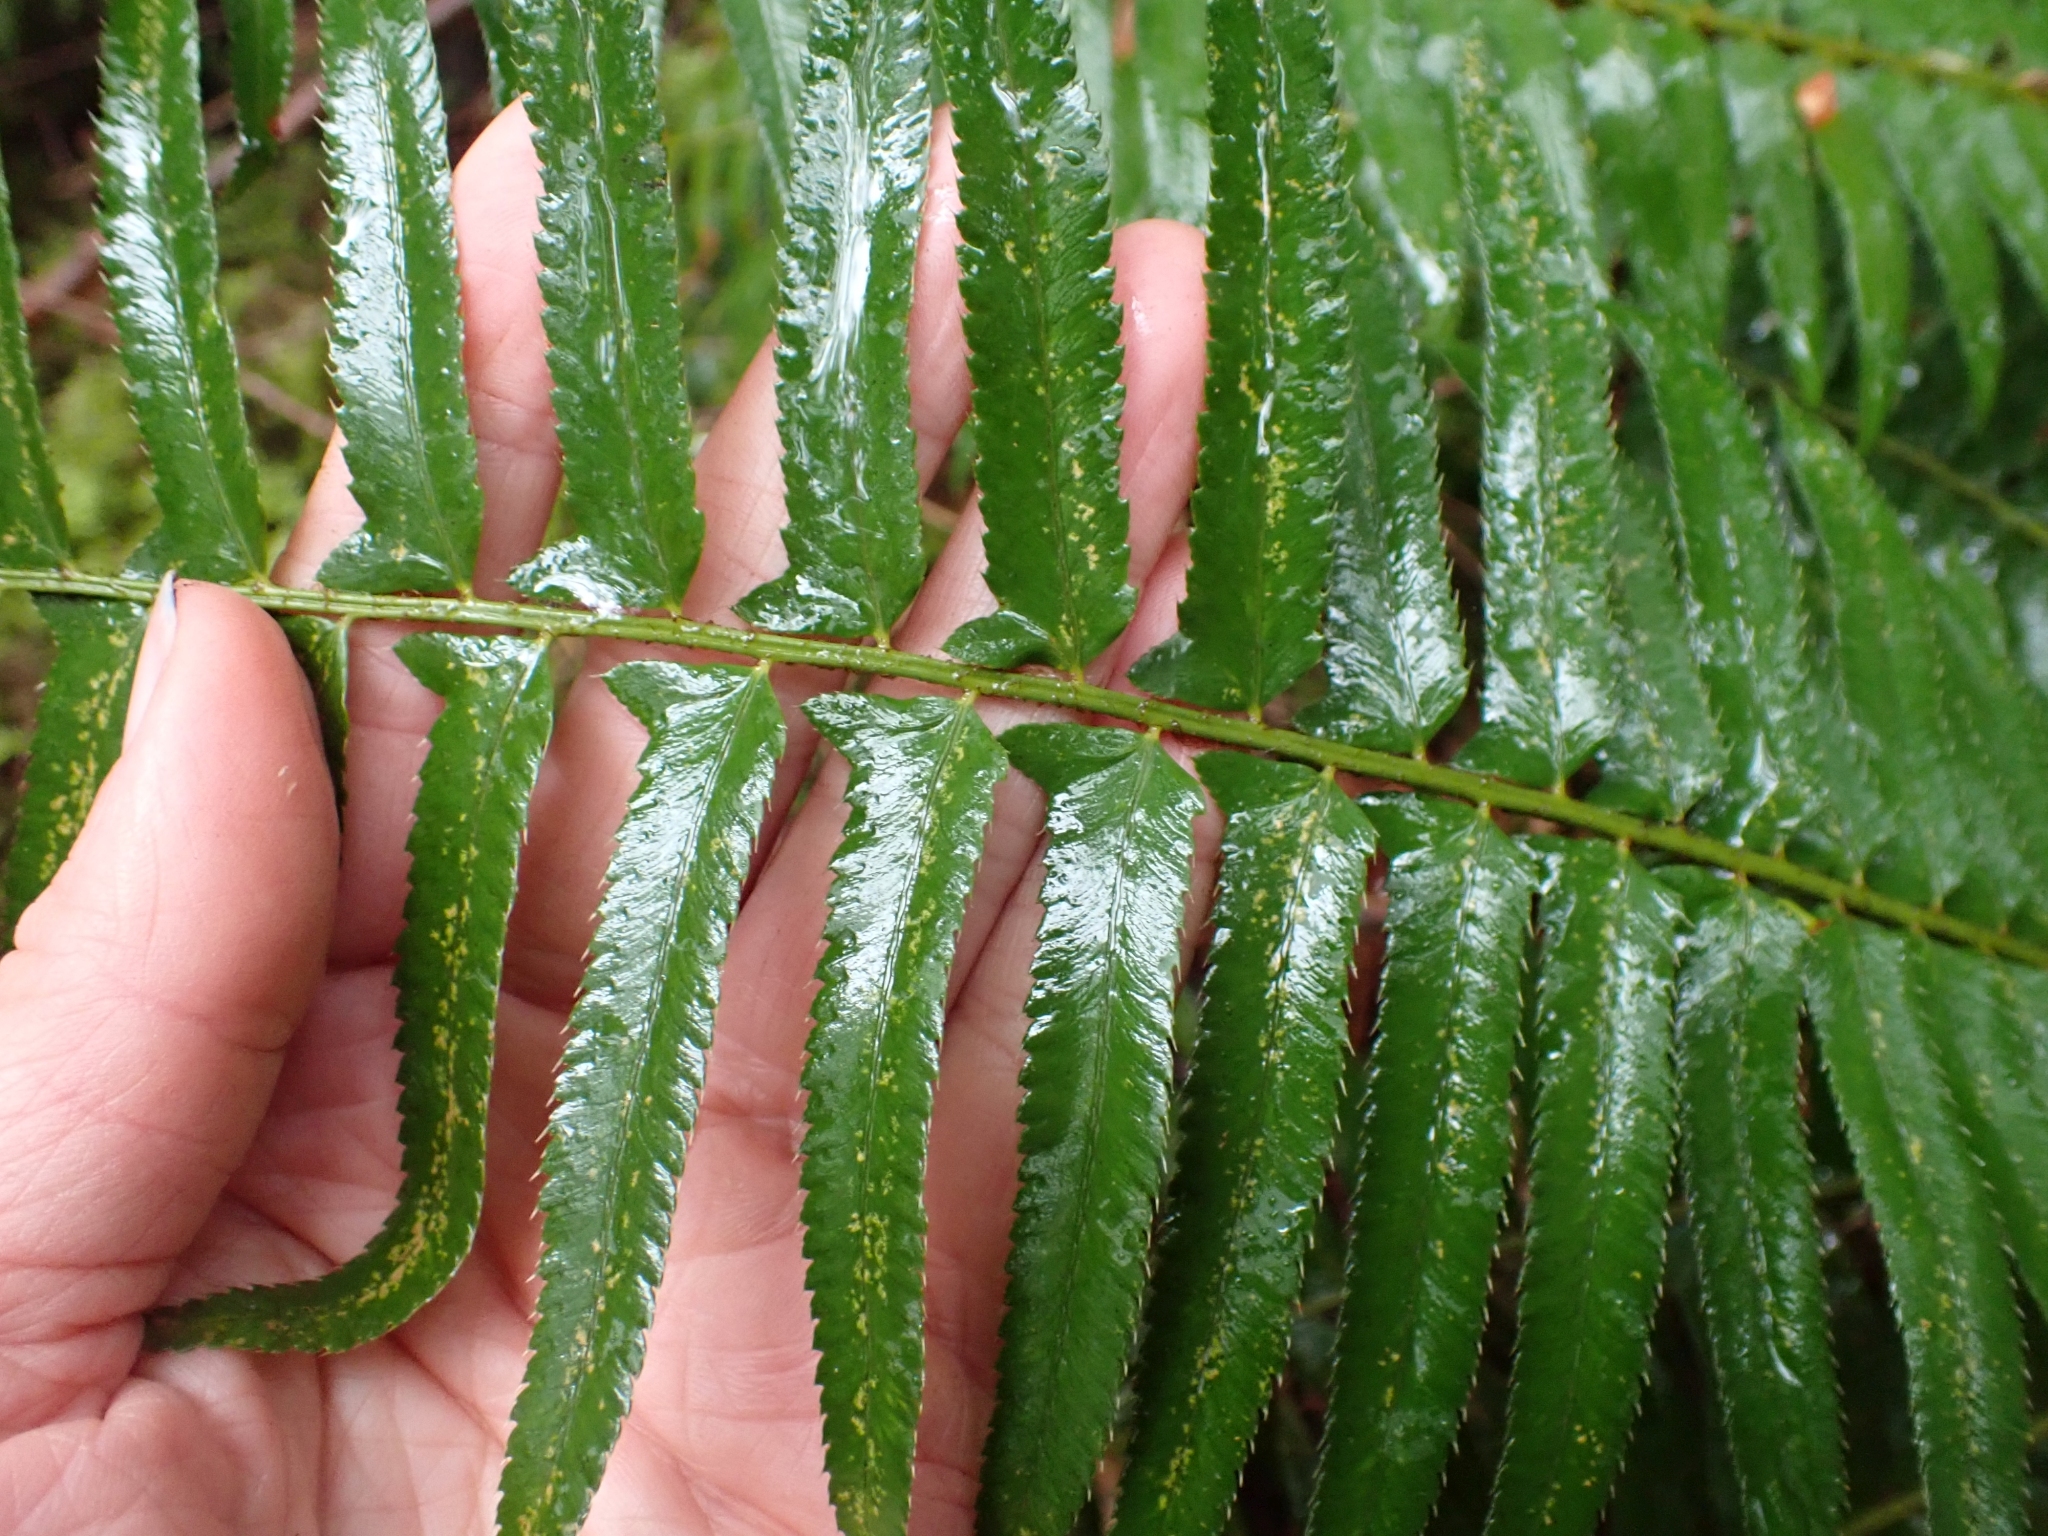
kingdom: Plantae
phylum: Tracheophyta
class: Polypodiopsida
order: Polypodiales
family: Dryopteridaceae
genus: Polystichum
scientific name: Polystichum munitum
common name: Western sword-fern
